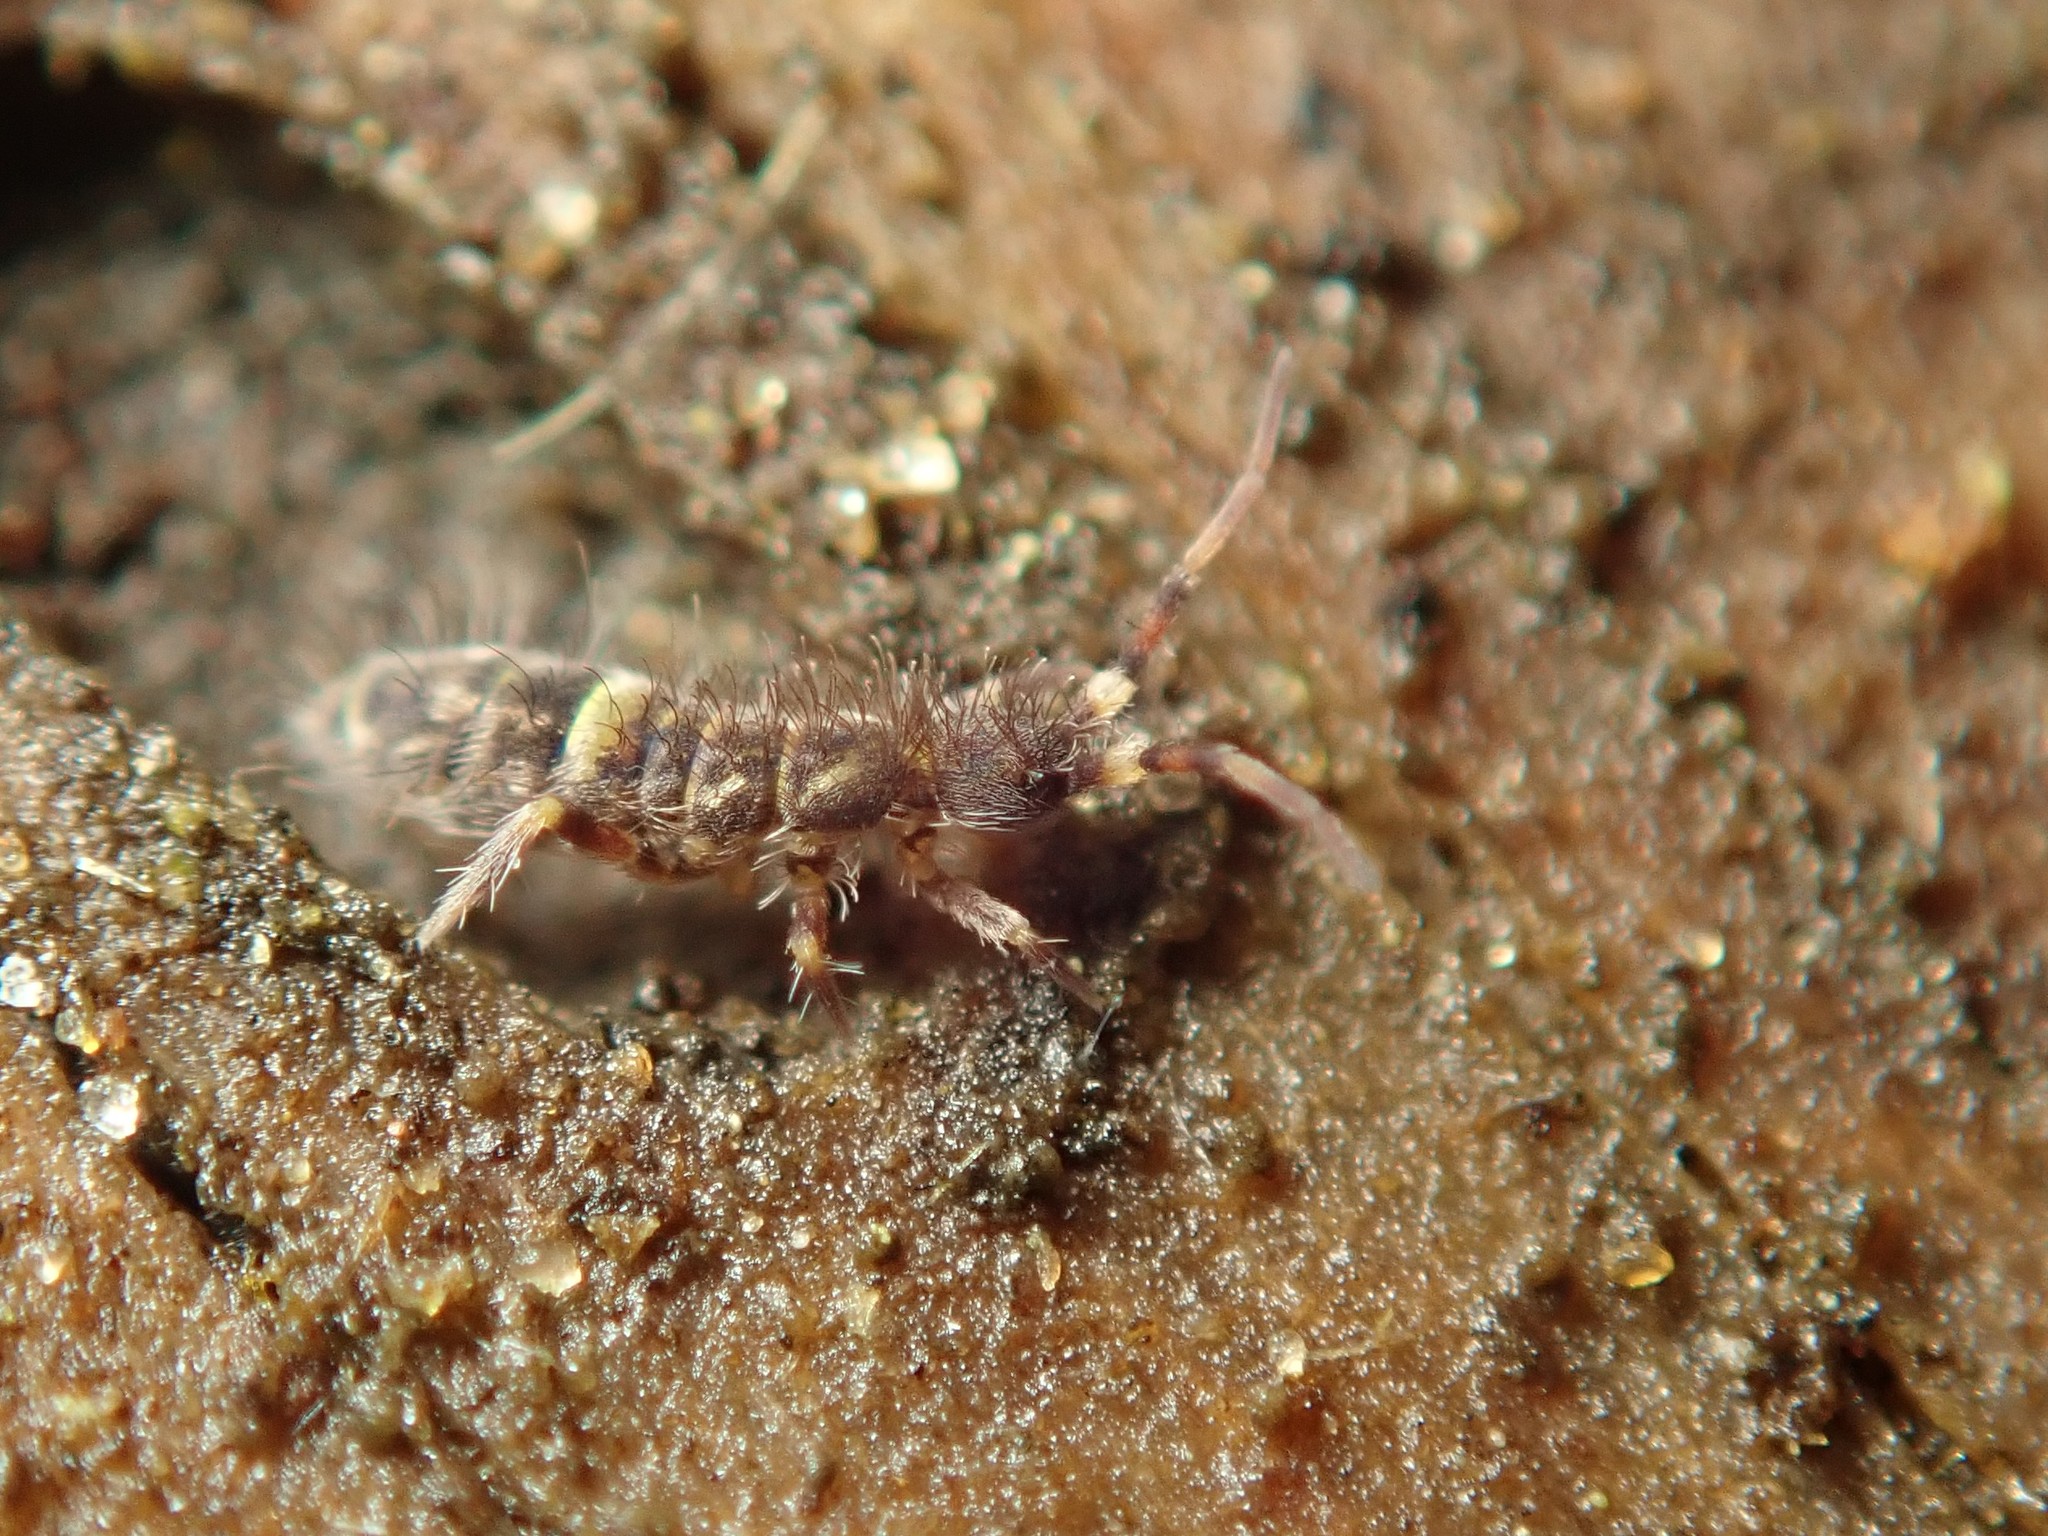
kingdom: Animalia
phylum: Arthropoda
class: Collembola
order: Entomobryomorpha
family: Orchesellidae
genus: Orchesella
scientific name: Orchesella cincta
